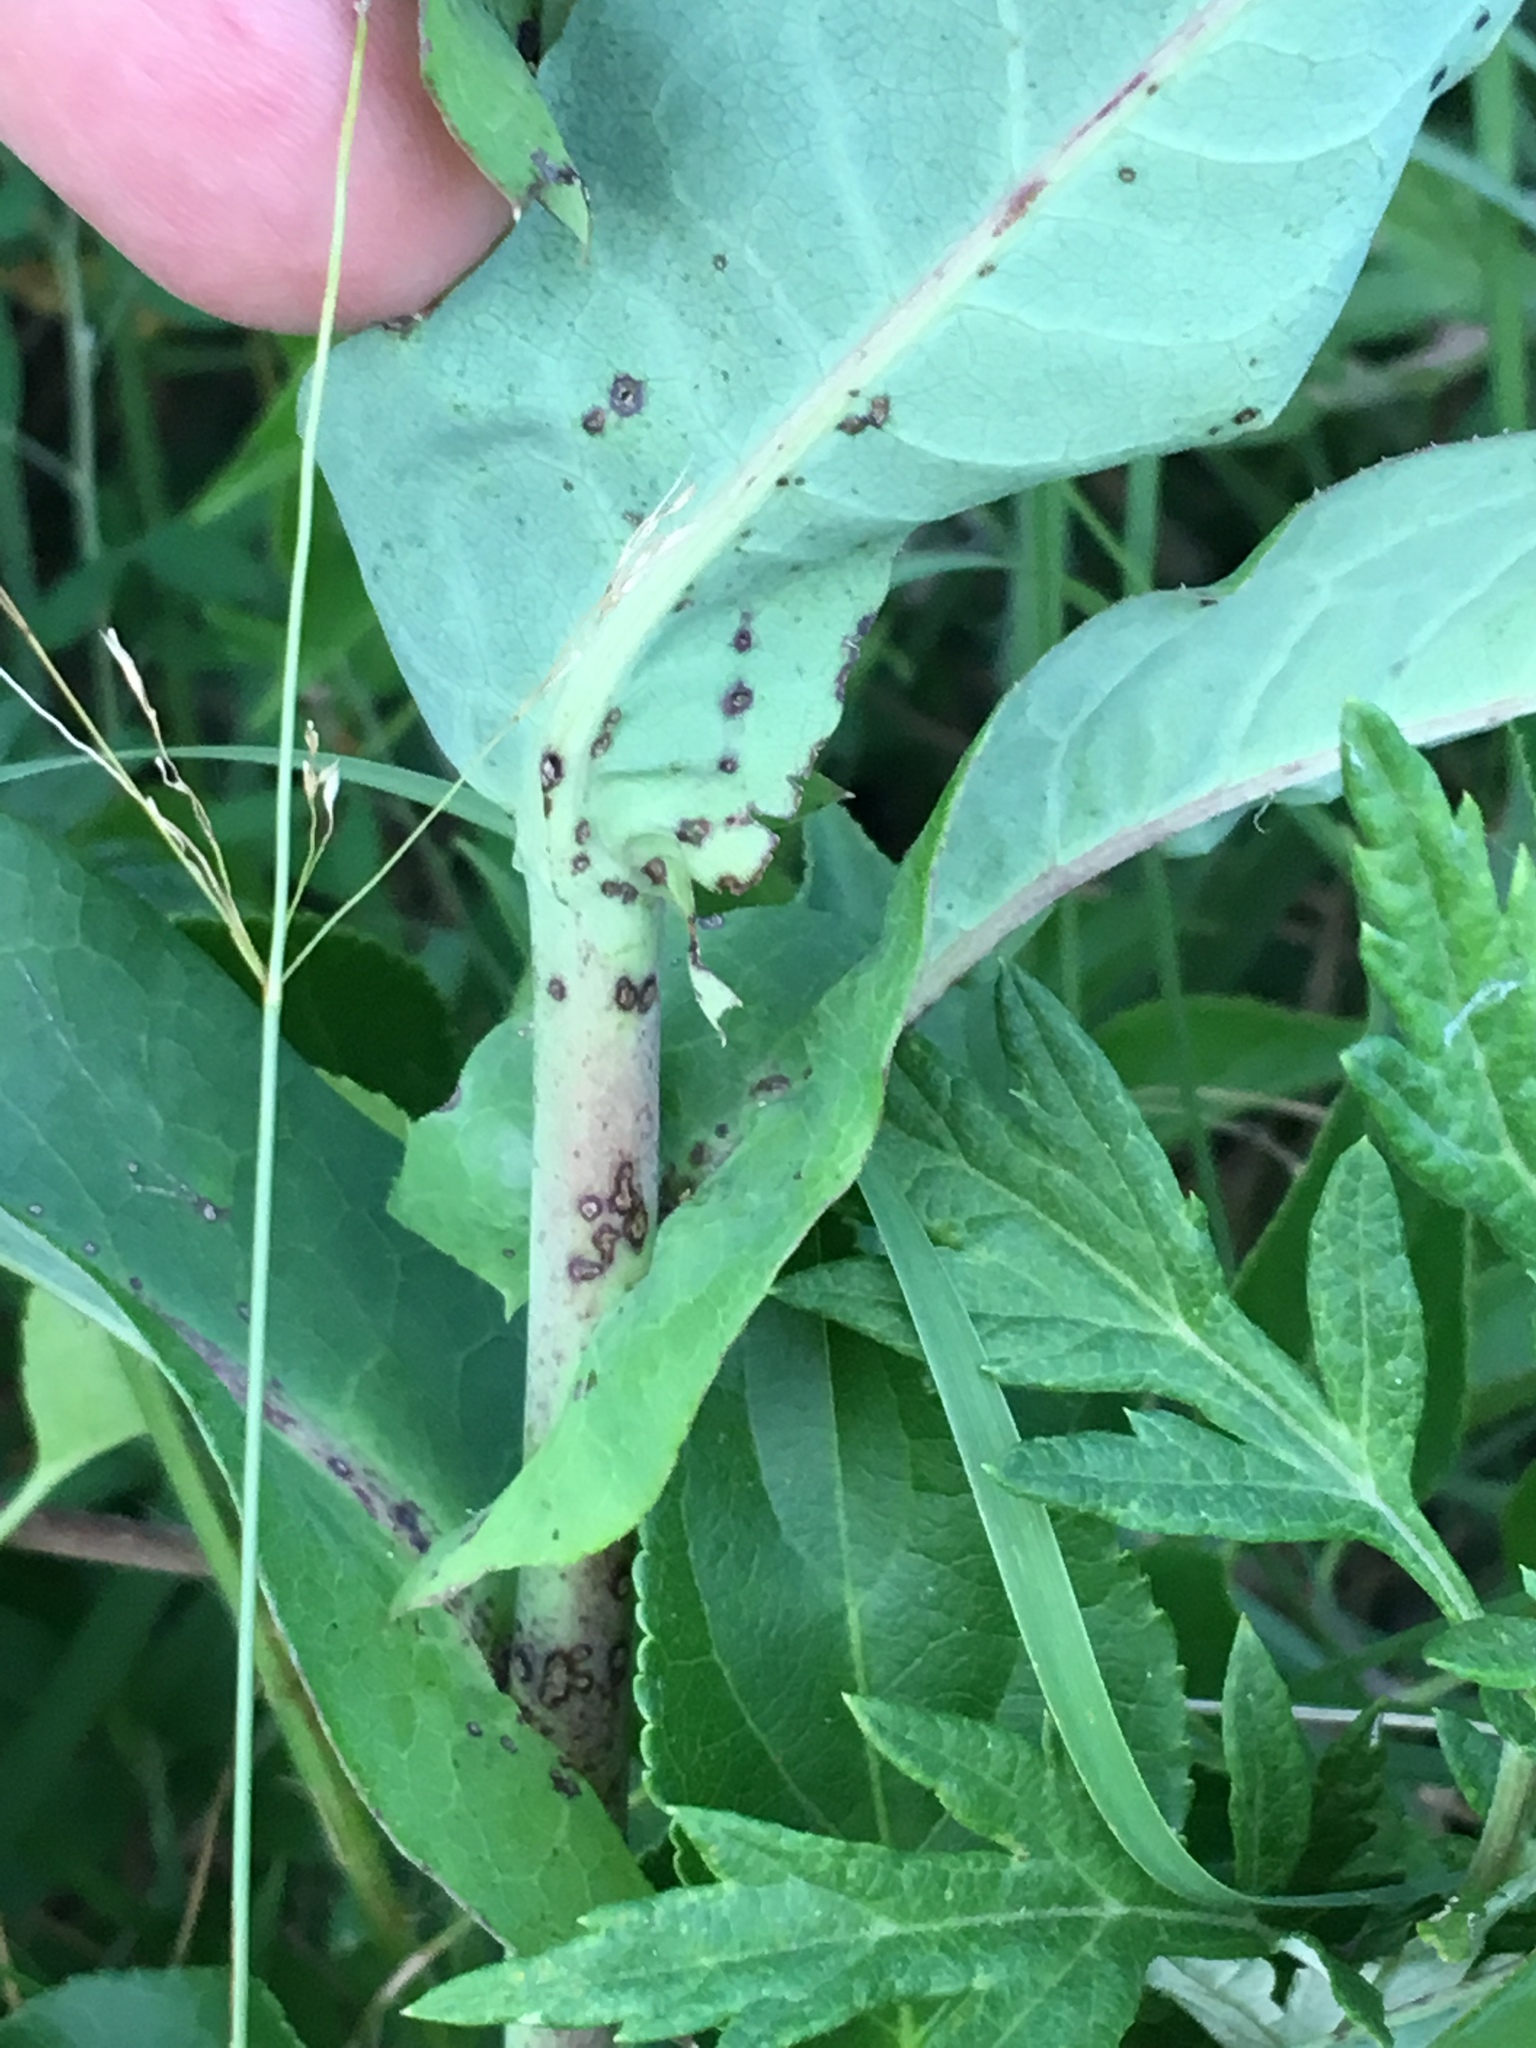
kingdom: Plantae
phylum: Tracheophyta
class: Magnoliopsida
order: Asterales
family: Asteraceae
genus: Lactuca
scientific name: Lactuca canadensis
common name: Canada lettuce
